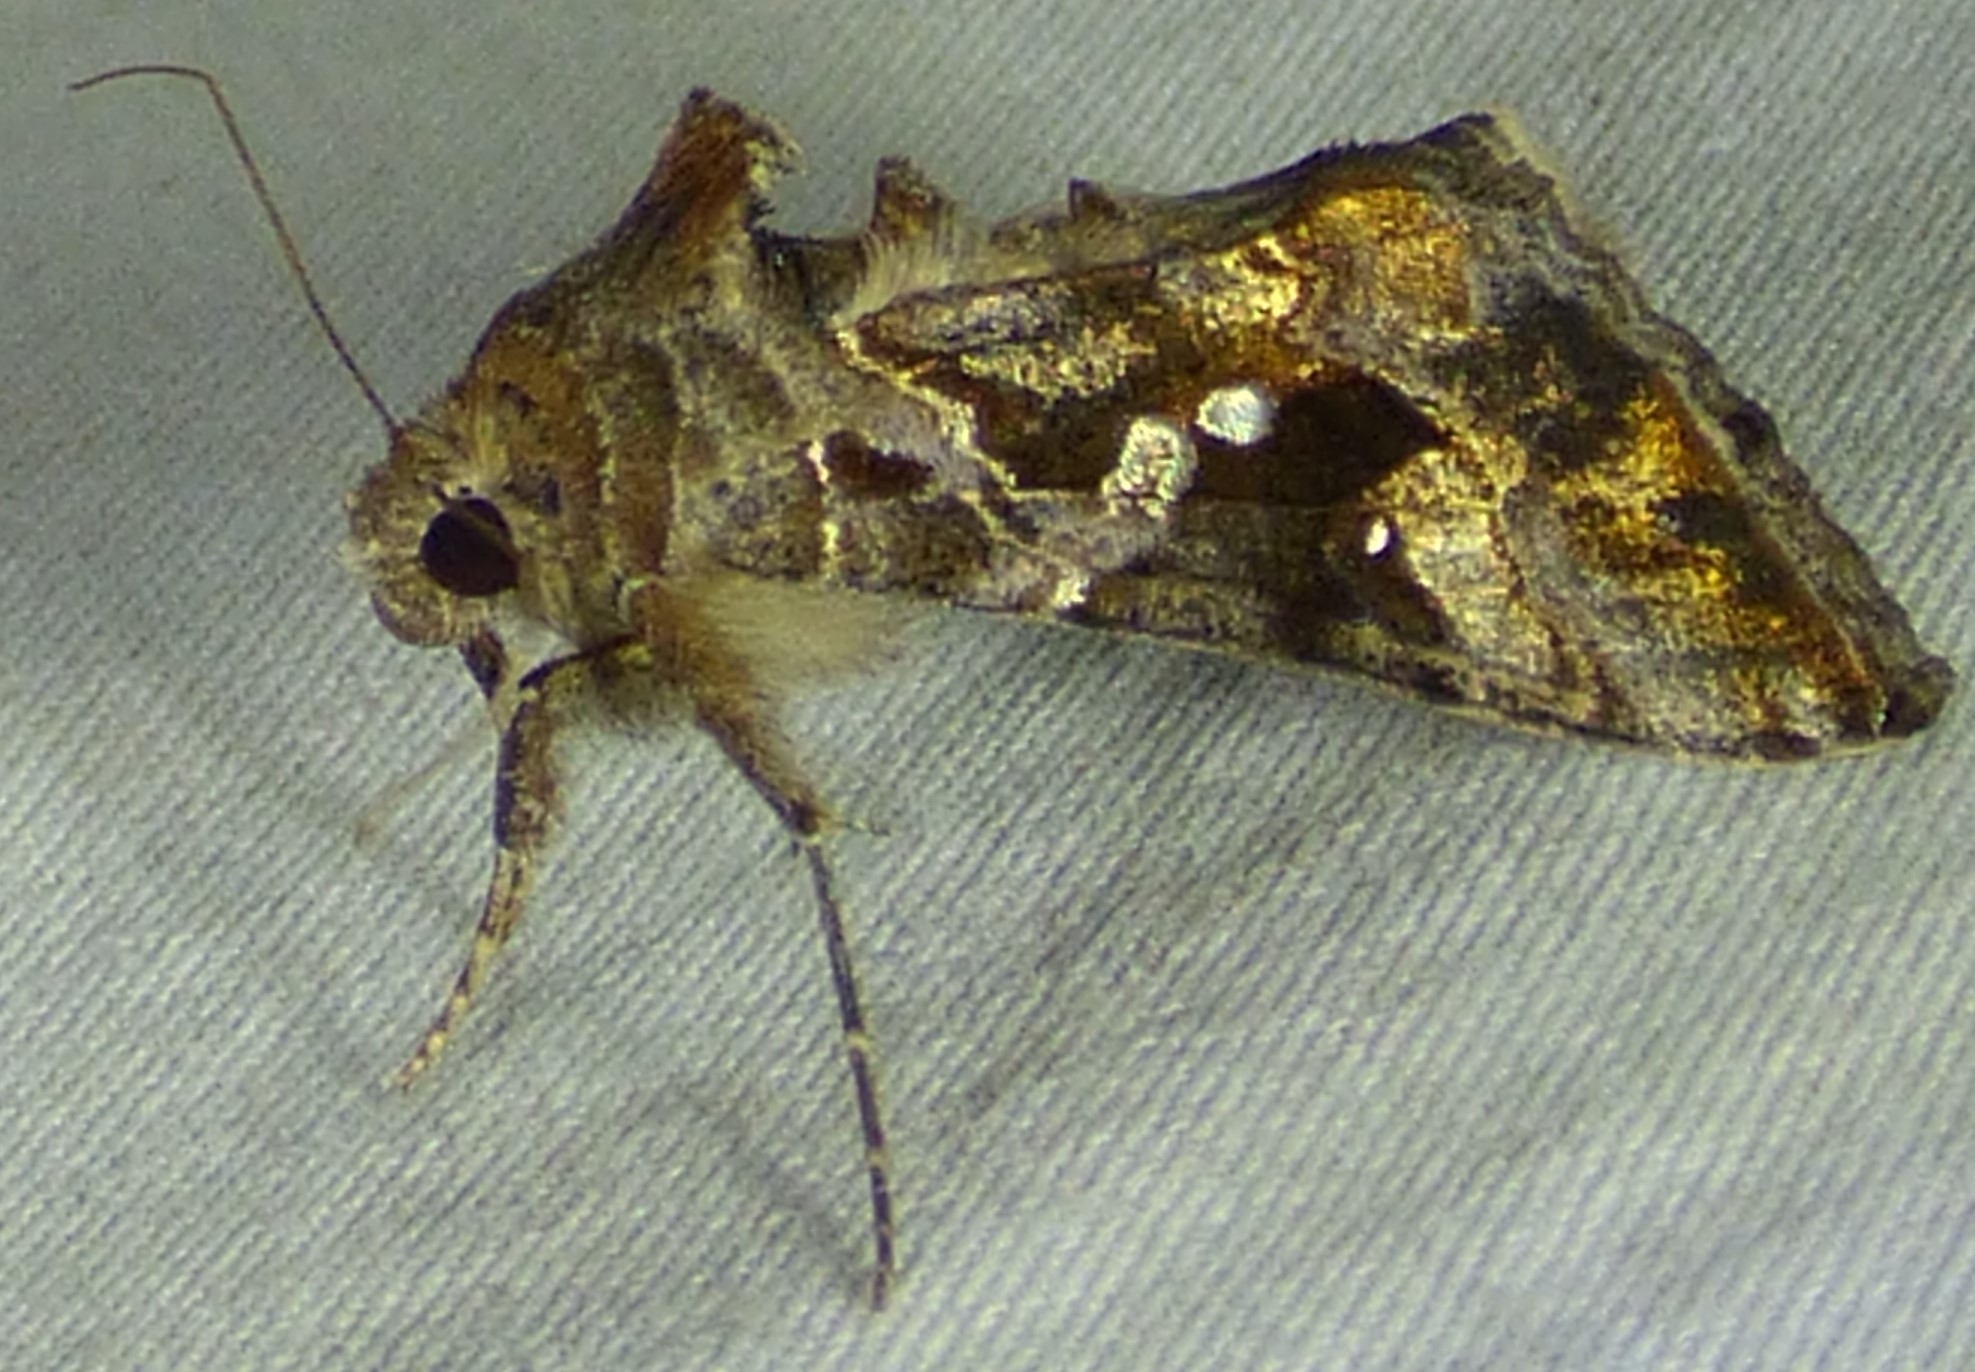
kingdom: Animalia
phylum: Arthropoda
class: Insecta
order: Lepidoptera
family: Noctuidae
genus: Chrysodeixis
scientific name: Chrysodeixis includens
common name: Cutworm moth
